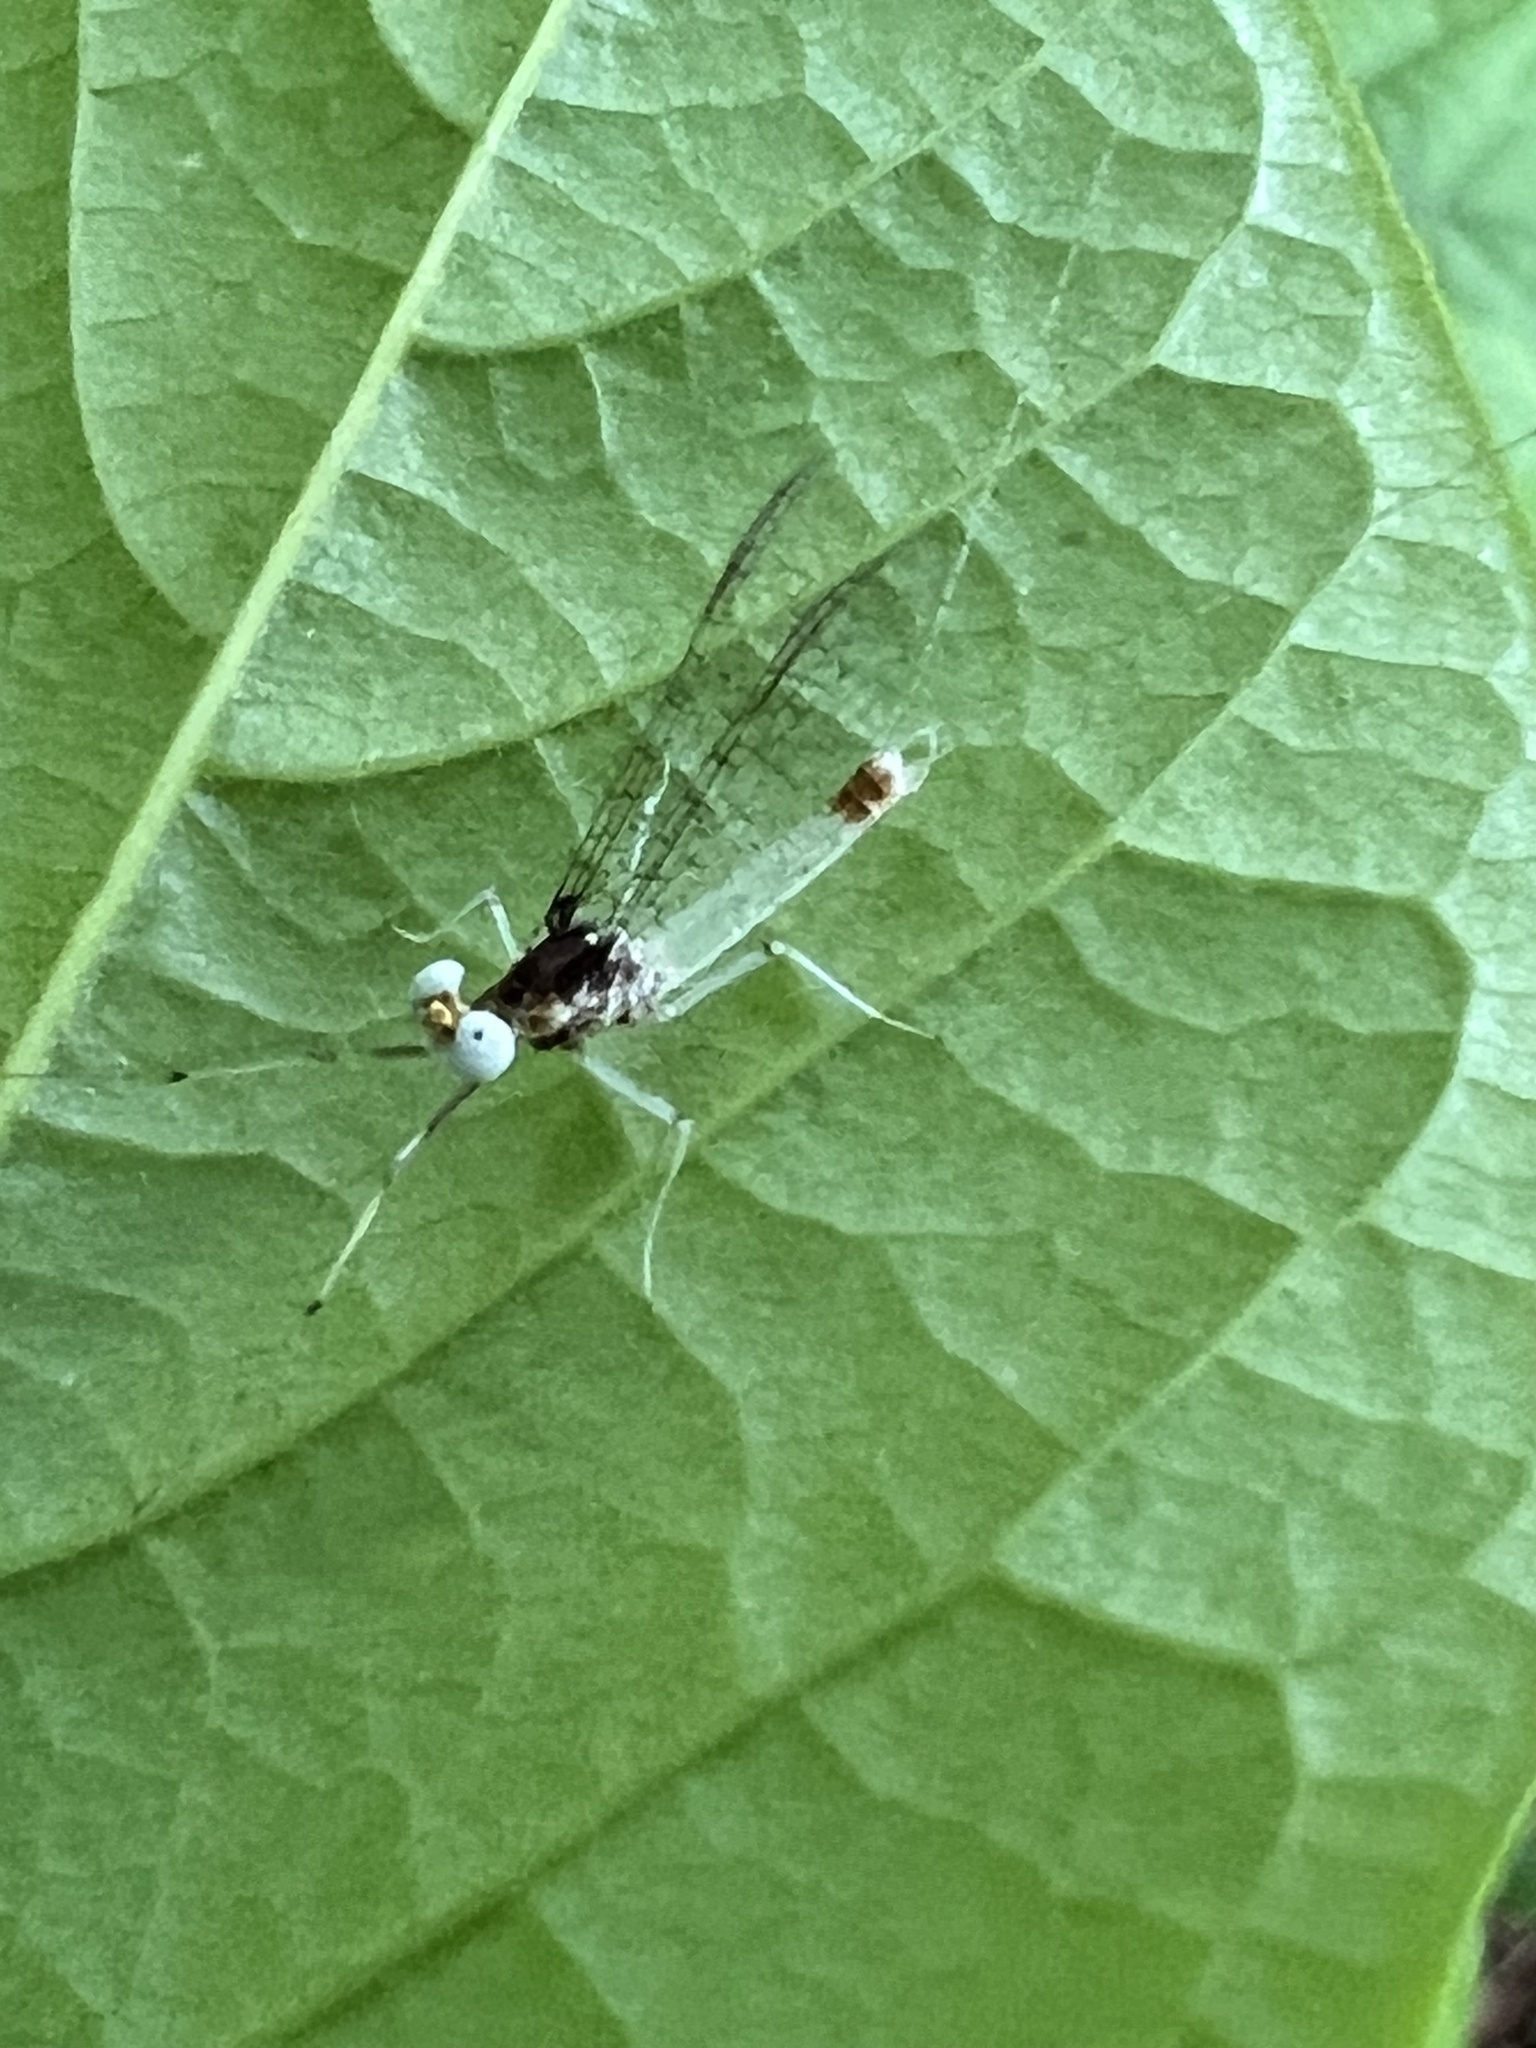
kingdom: Animalia
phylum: Arthropoda
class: Insecta
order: Ephemeroptera
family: Heptageniidae
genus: Maccaffertium
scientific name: Maccaffertium modestum
